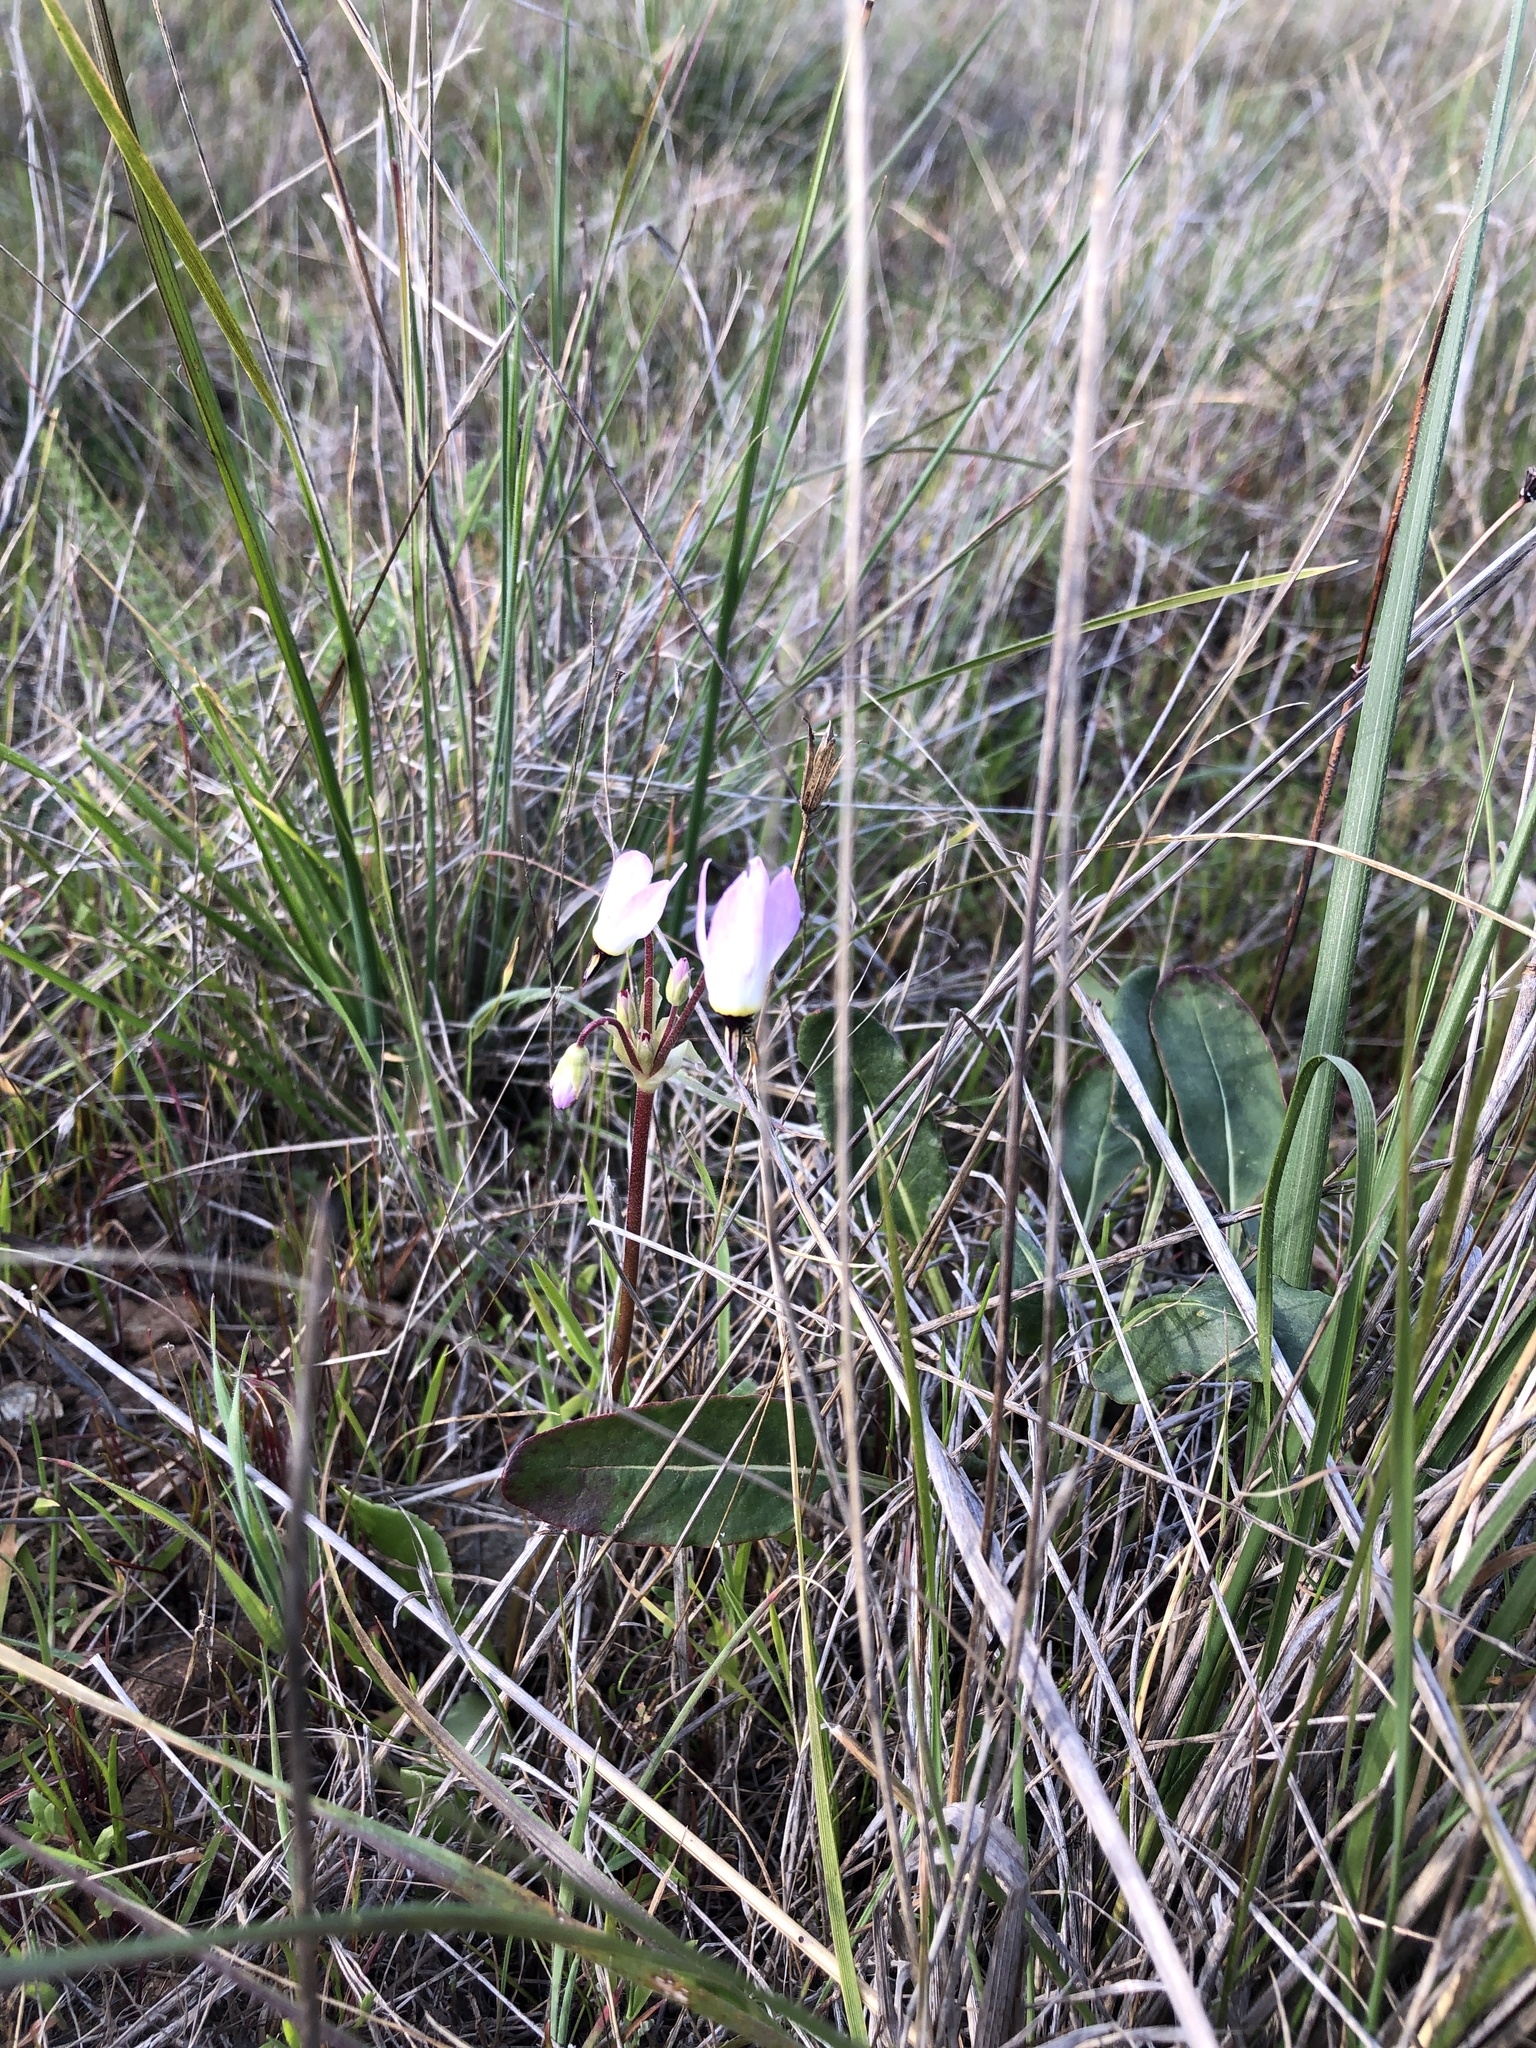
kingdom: Plantae
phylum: Tracheophyta
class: Magnoliopsida
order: Ericales
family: Primulaceae
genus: Dodecatheon
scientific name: Dodecatheon hendersonii
